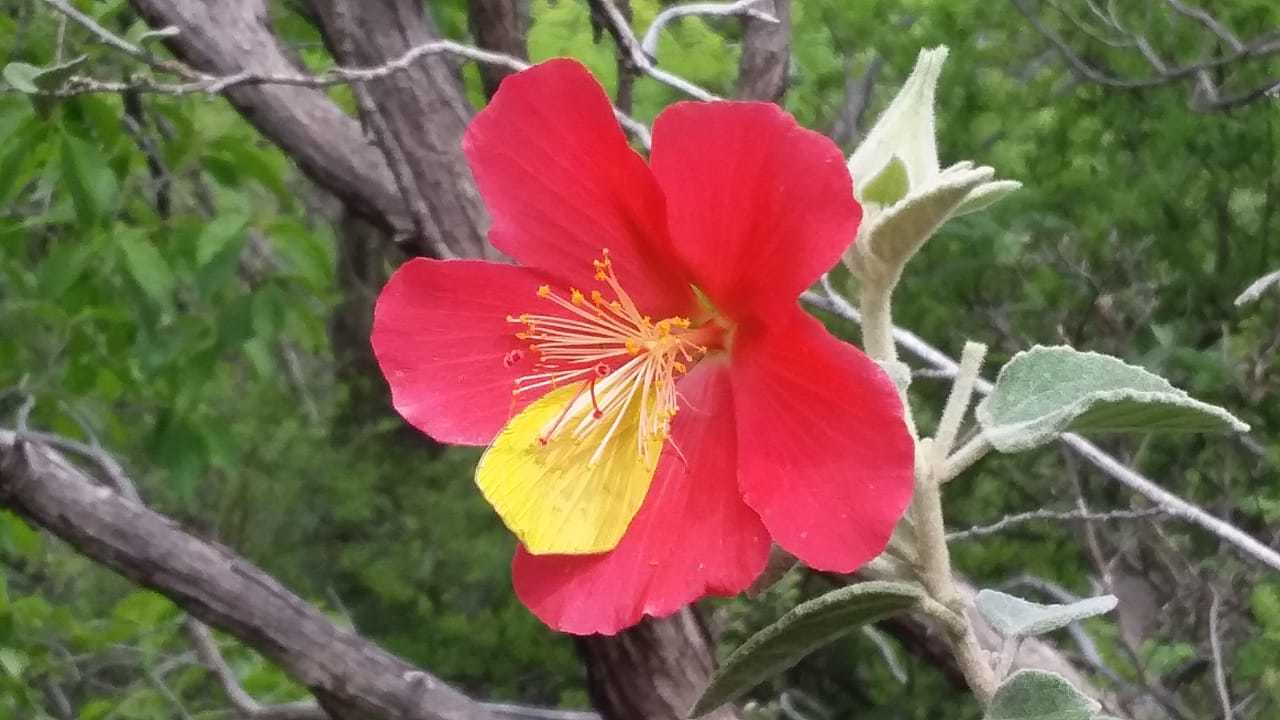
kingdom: Plantae
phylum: Tracheophyta
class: Magnoliopsida
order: Malvales
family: Malvaceae
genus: Hibiscus
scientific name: Hibiscus longifilus
